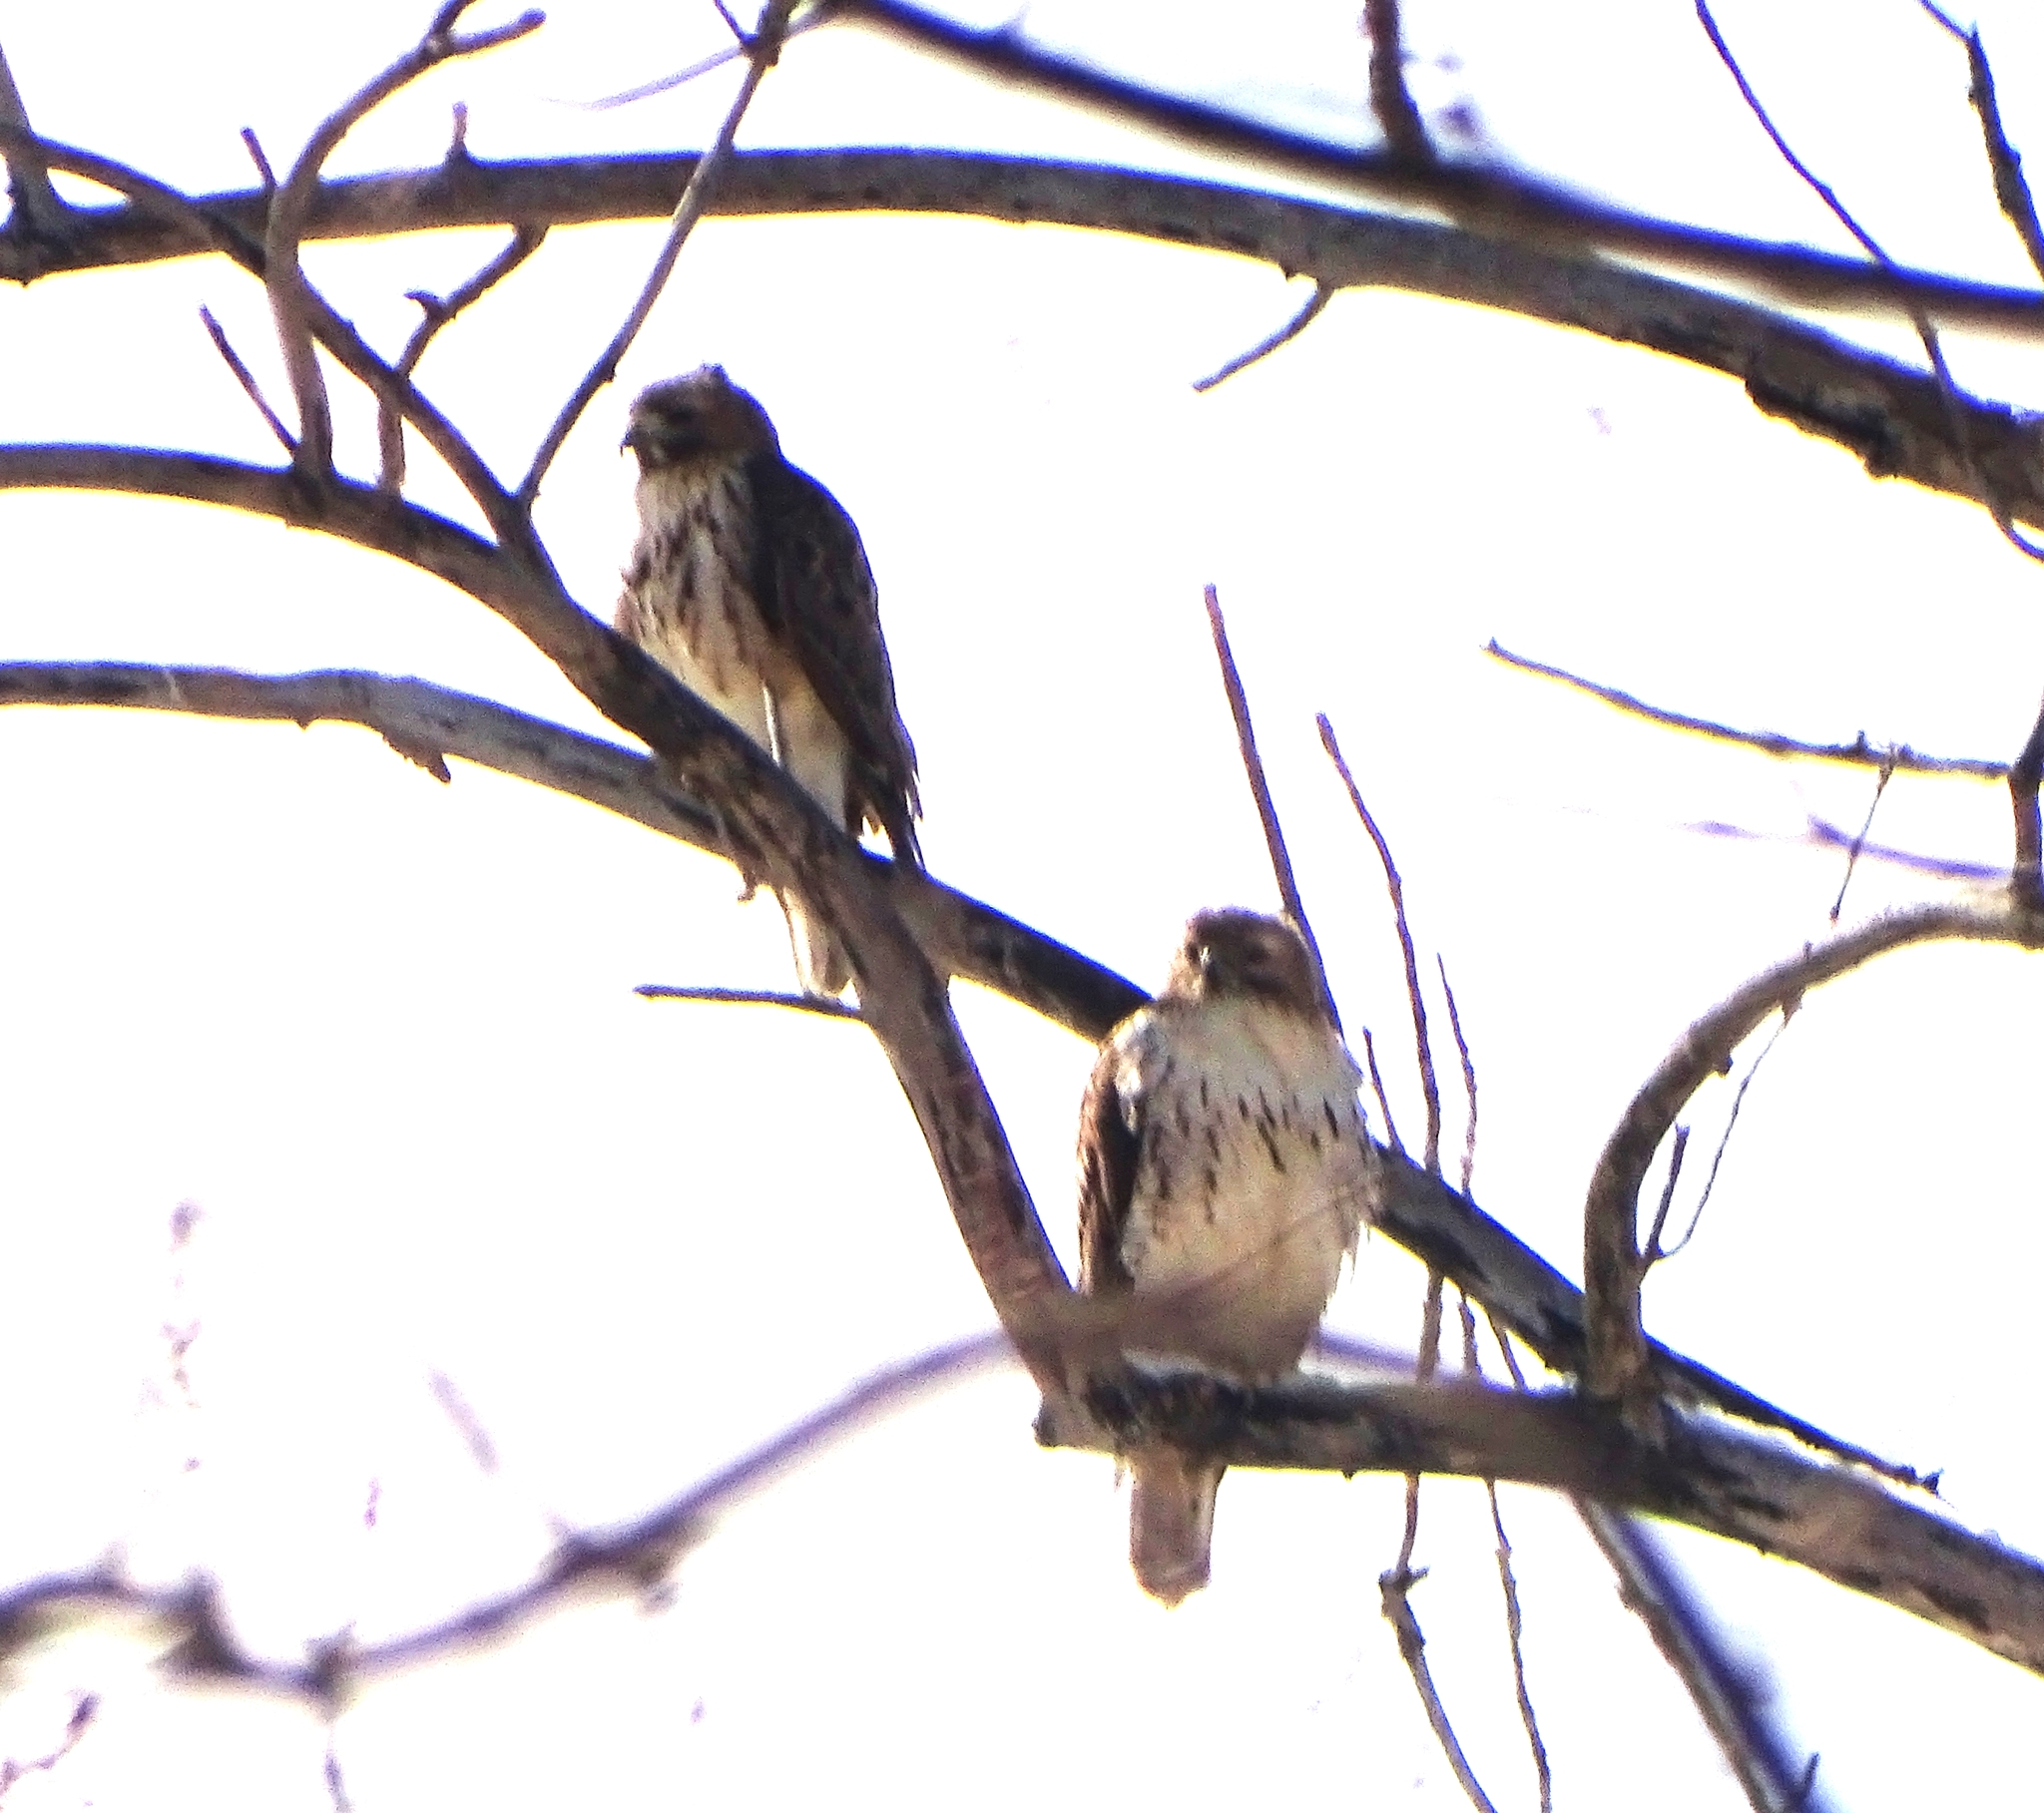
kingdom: Animalia
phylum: Chordata
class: Aves
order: Accipitriformes
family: Accipitridae
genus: Buteo
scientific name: Buteo jamaicensis
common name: Red-tailed hawk
